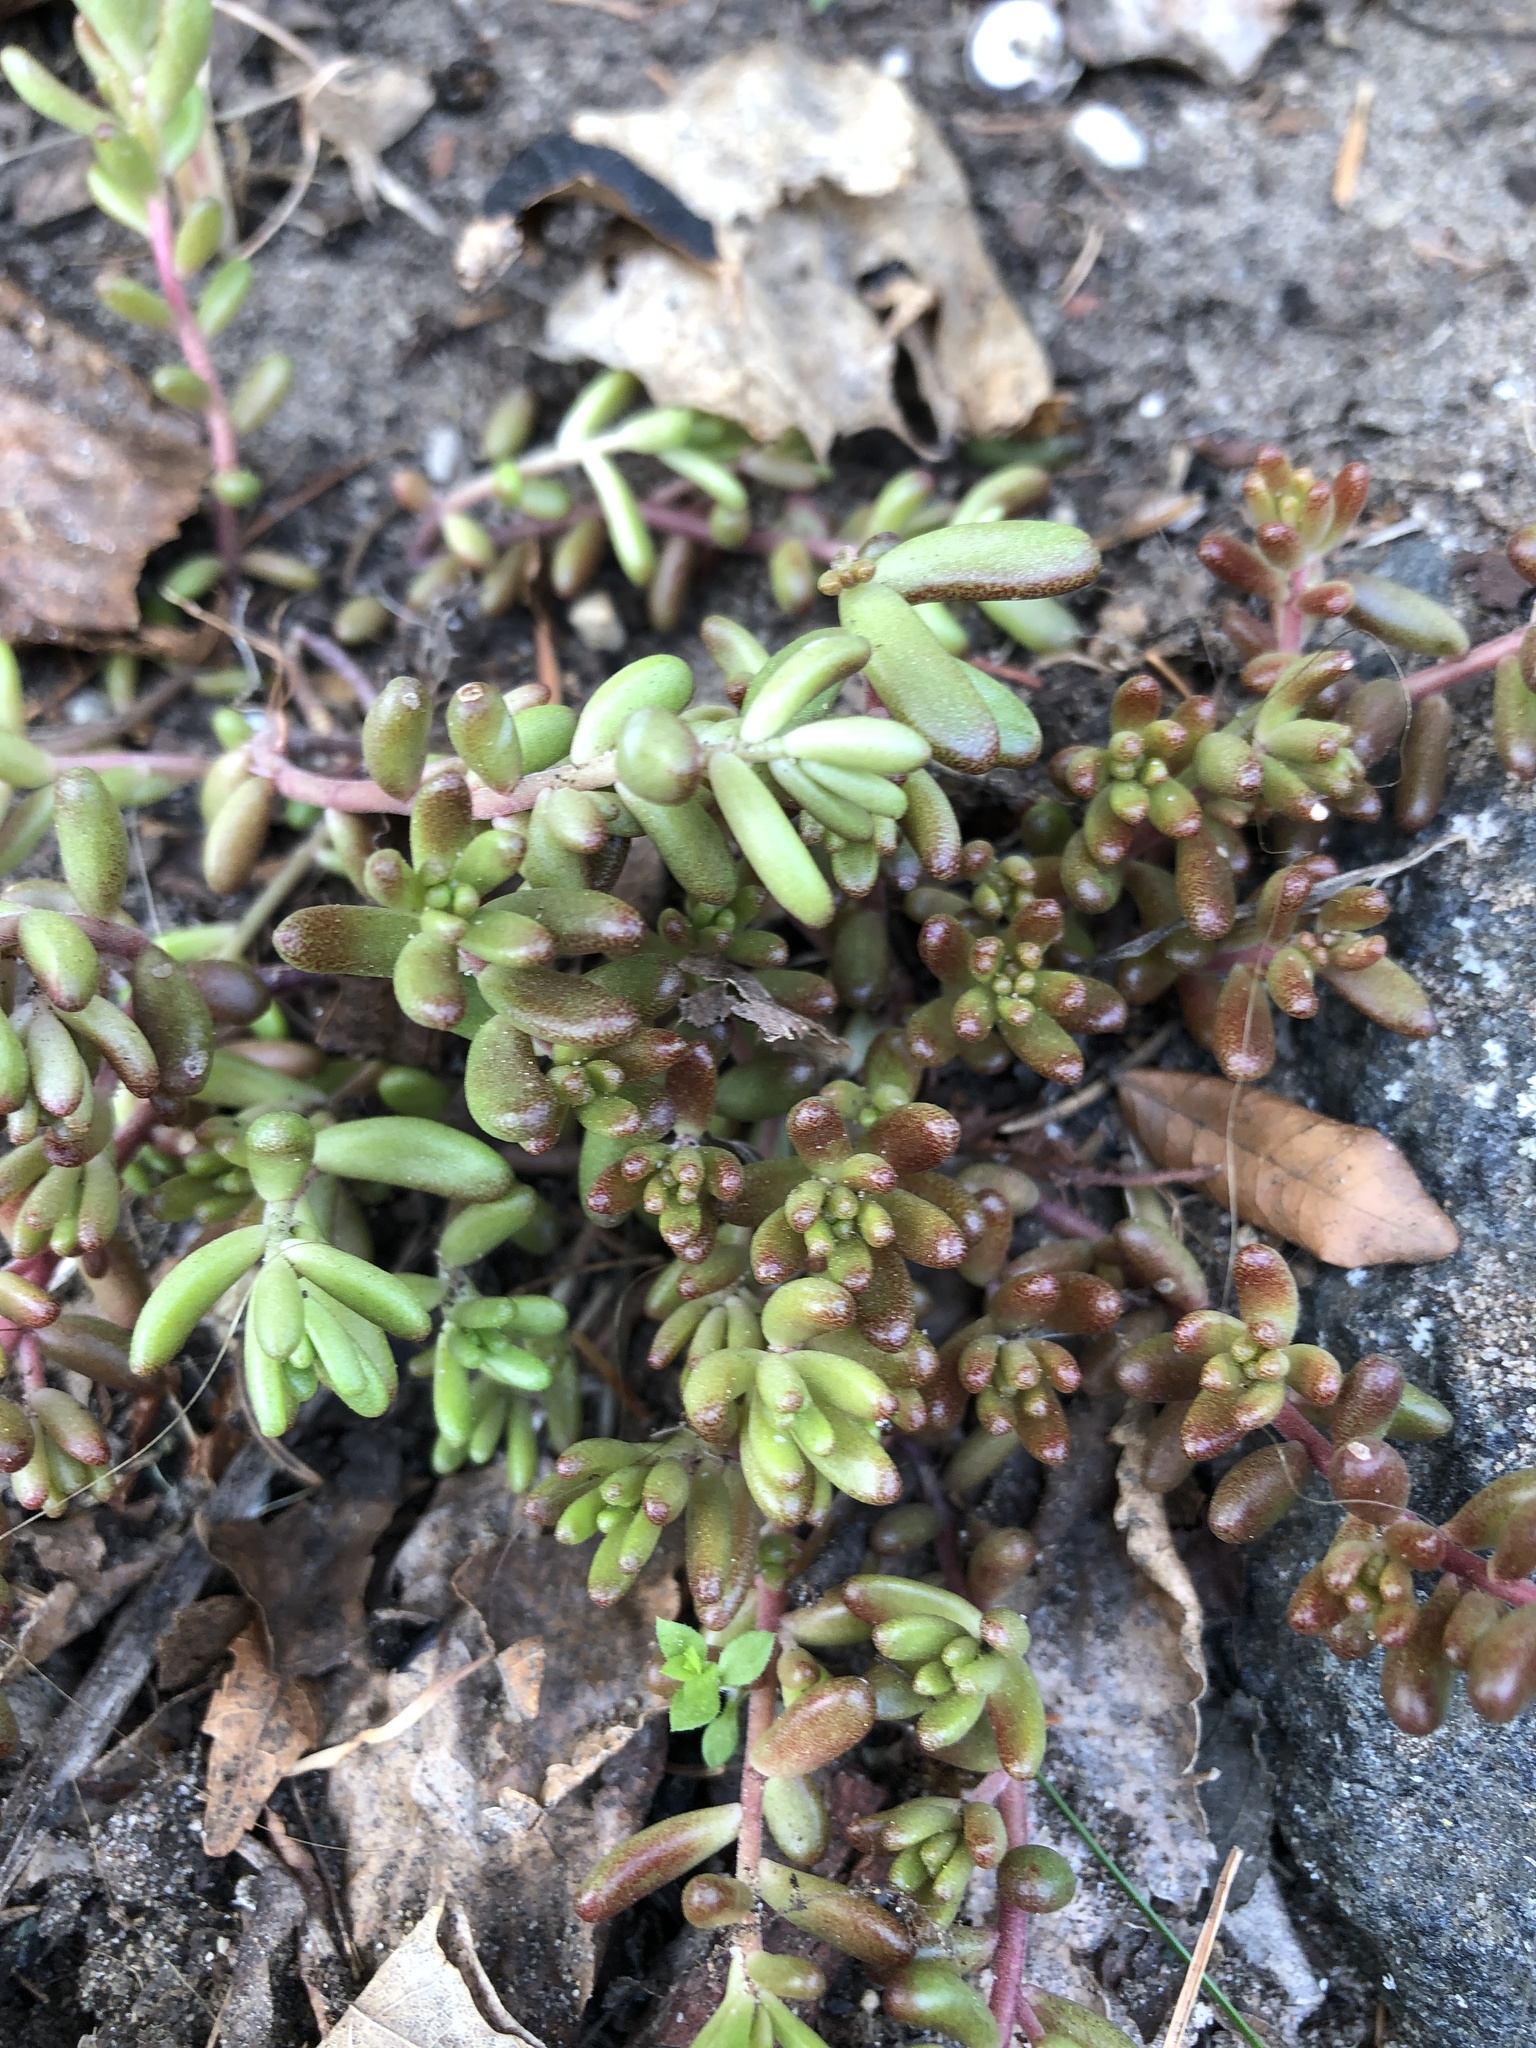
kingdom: Plantae
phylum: Tracheophyta
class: Magnoliopsida
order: Saxifragales
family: Crassulaceae
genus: Sedum
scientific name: Sedum album
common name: White stonecrop
